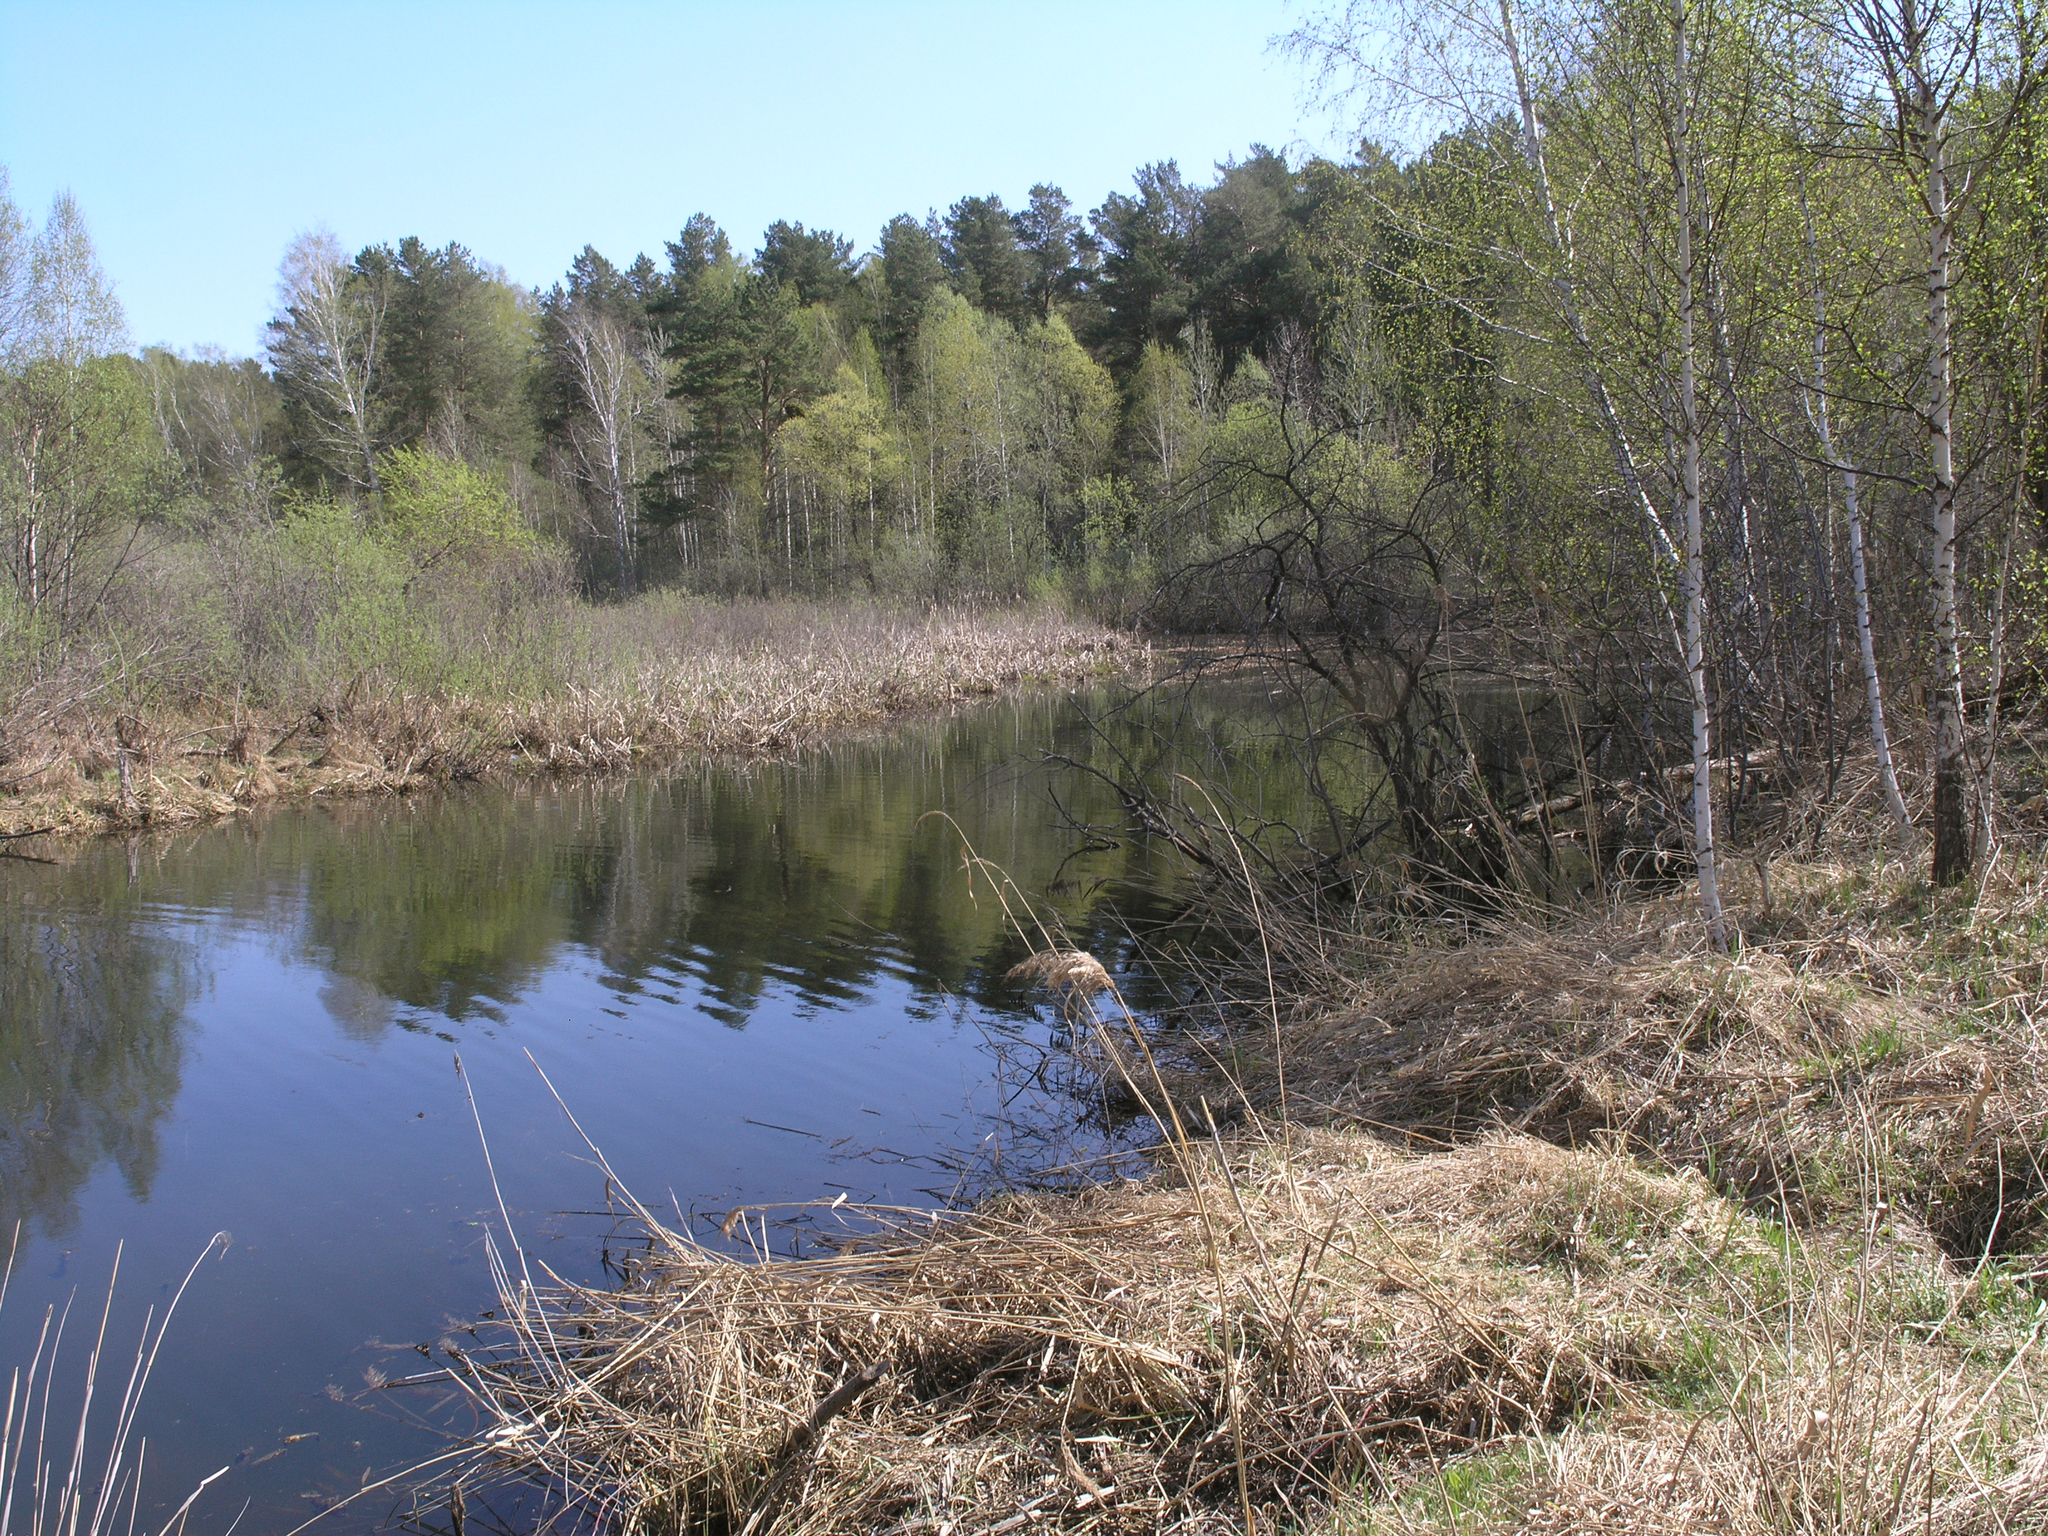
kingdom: Plantae
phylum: Tracheophyta
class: Pinopsida
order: Pinales
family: Pinaceae
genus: Pinus
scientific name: Pinus sylvestris
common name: Scots pine
